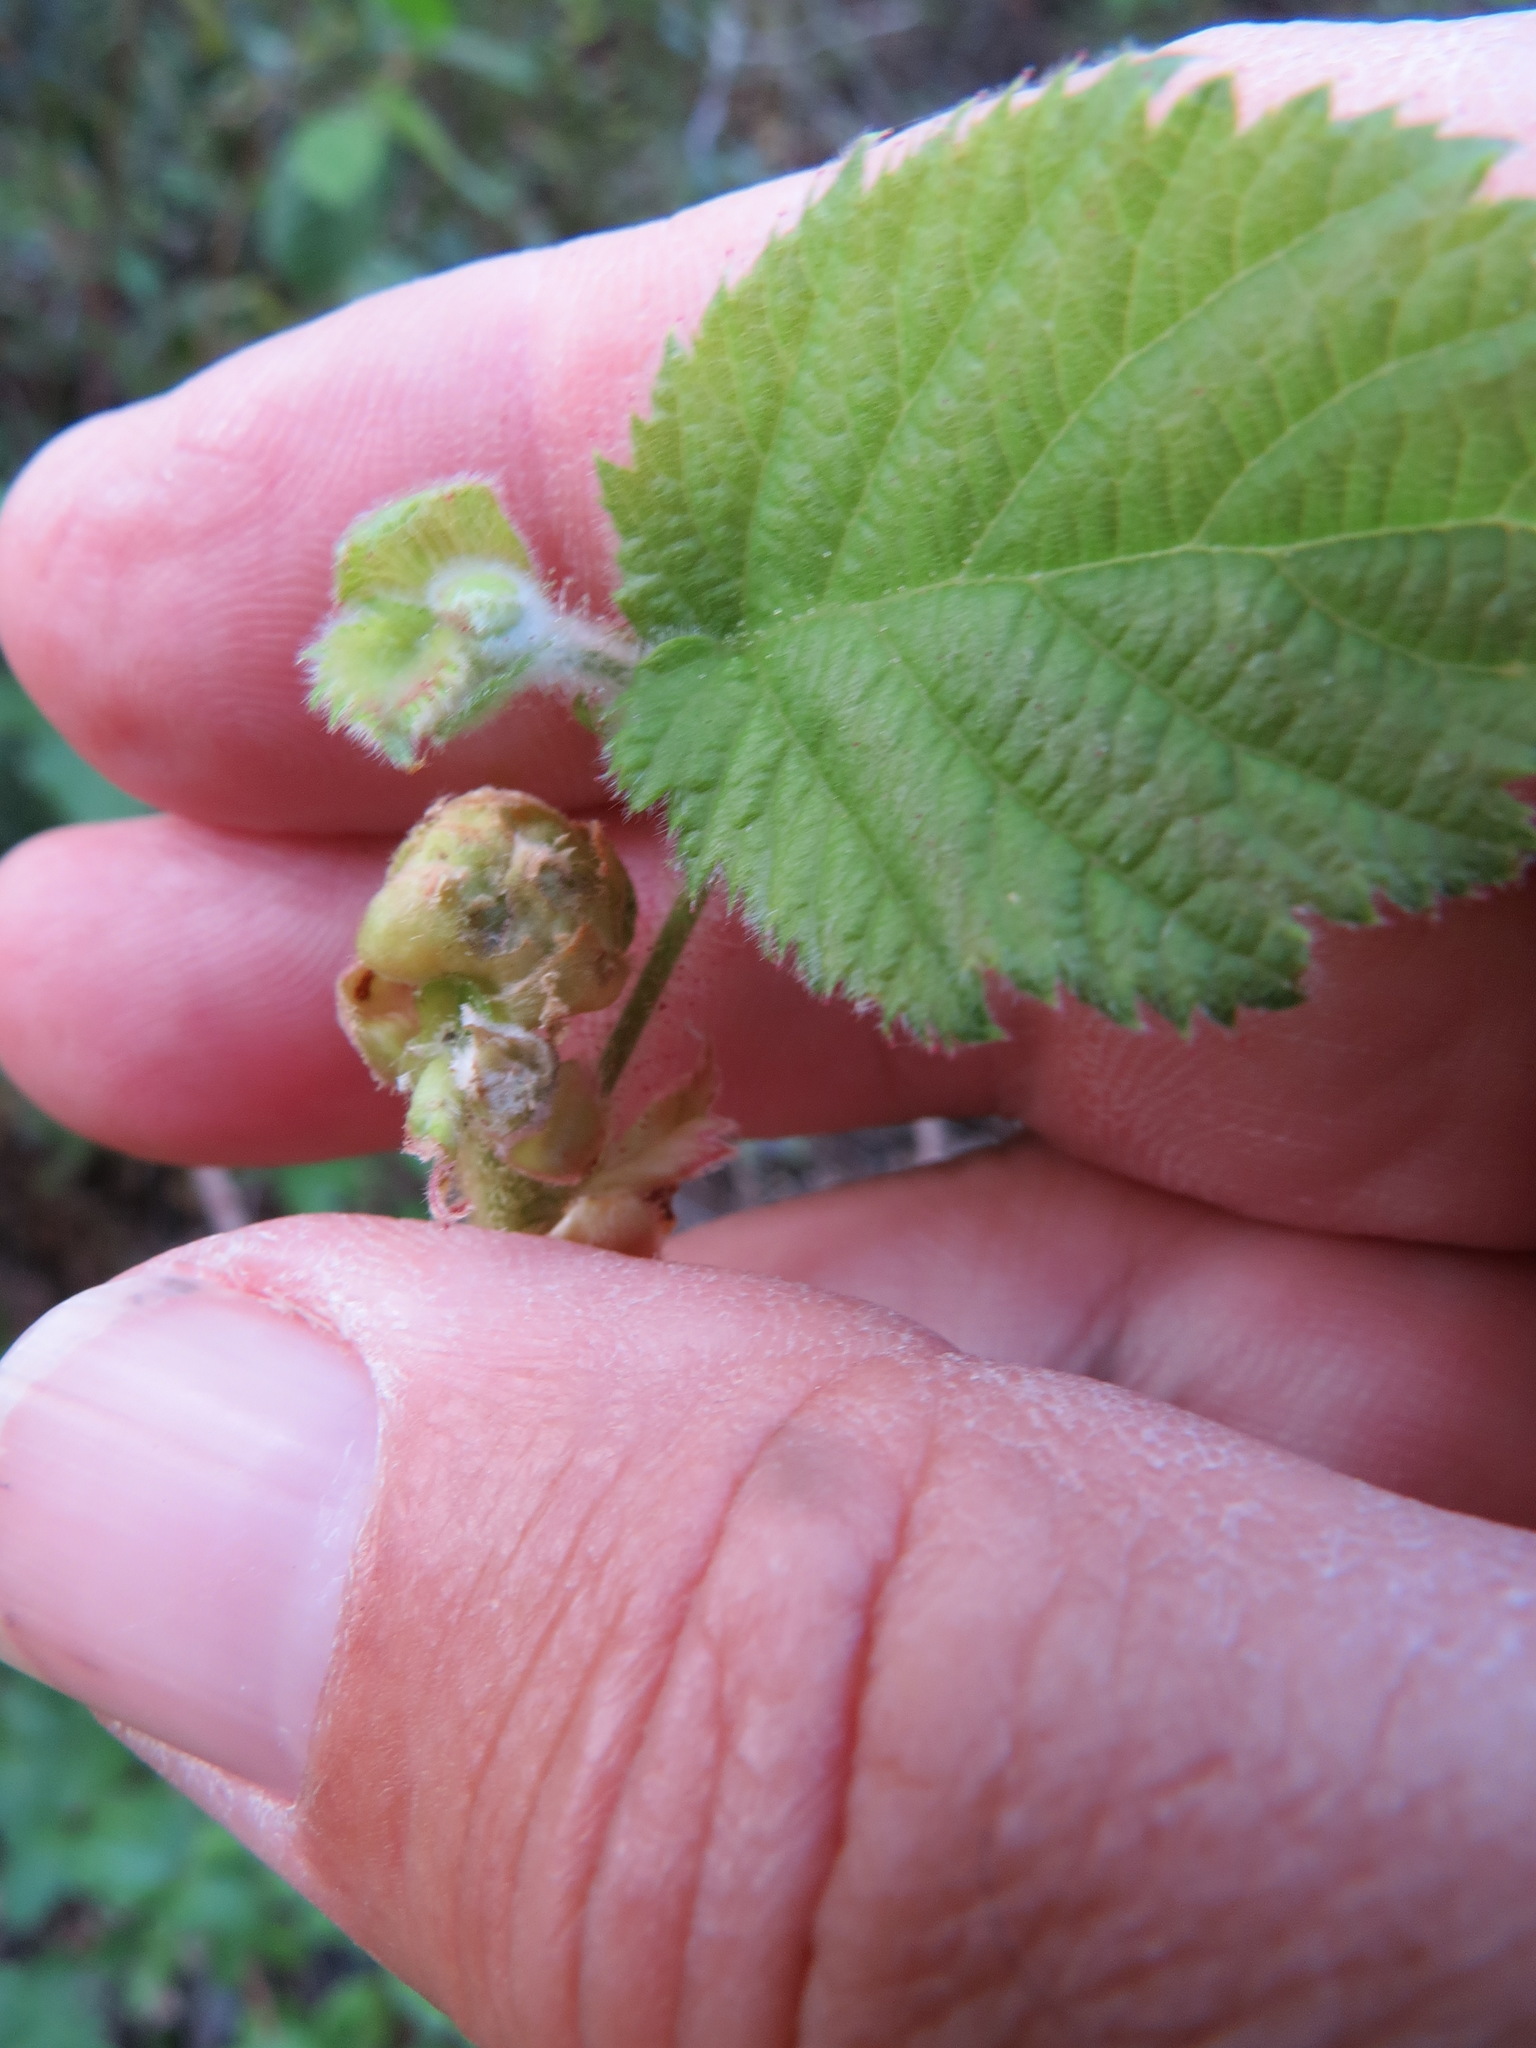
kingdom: Plantae
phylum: Tracheophyta
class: Magnoliopsida
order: Fagales
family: Betulaceae
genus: Corylus
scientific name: Corylus cornuta
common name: Beaked hazel
